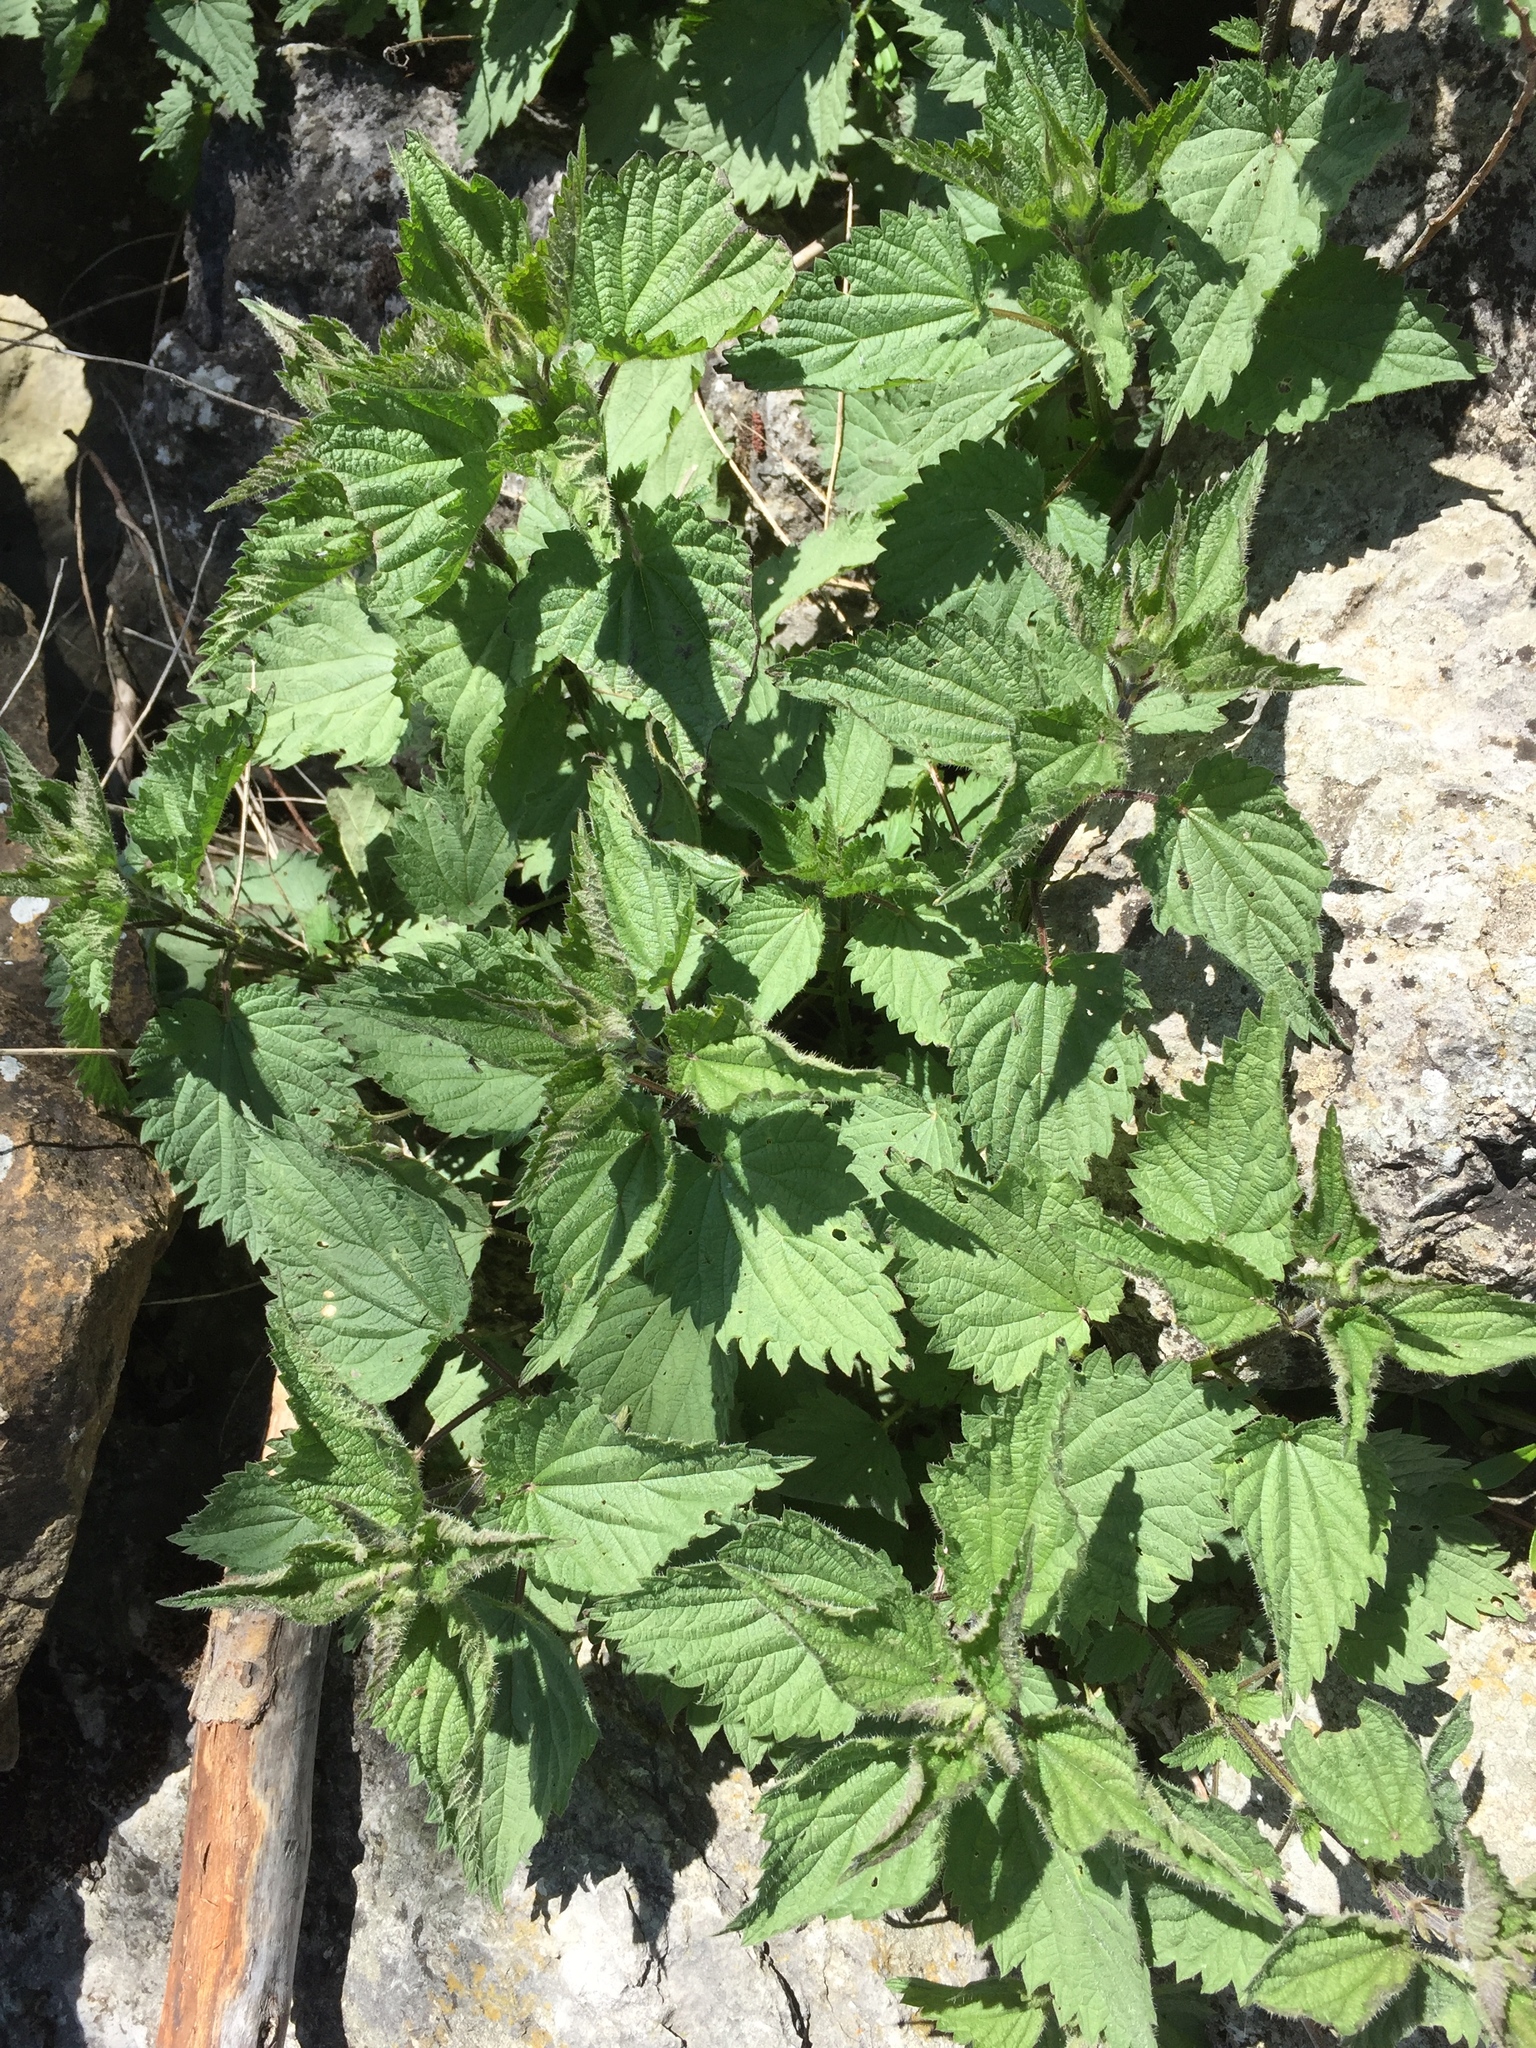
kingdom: Plantae
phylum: Tracheophyta
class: Magnoliopsida
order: Rosales
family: Urticaceae
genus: Urtica
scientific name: Urtica dioica
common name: Common nettle
